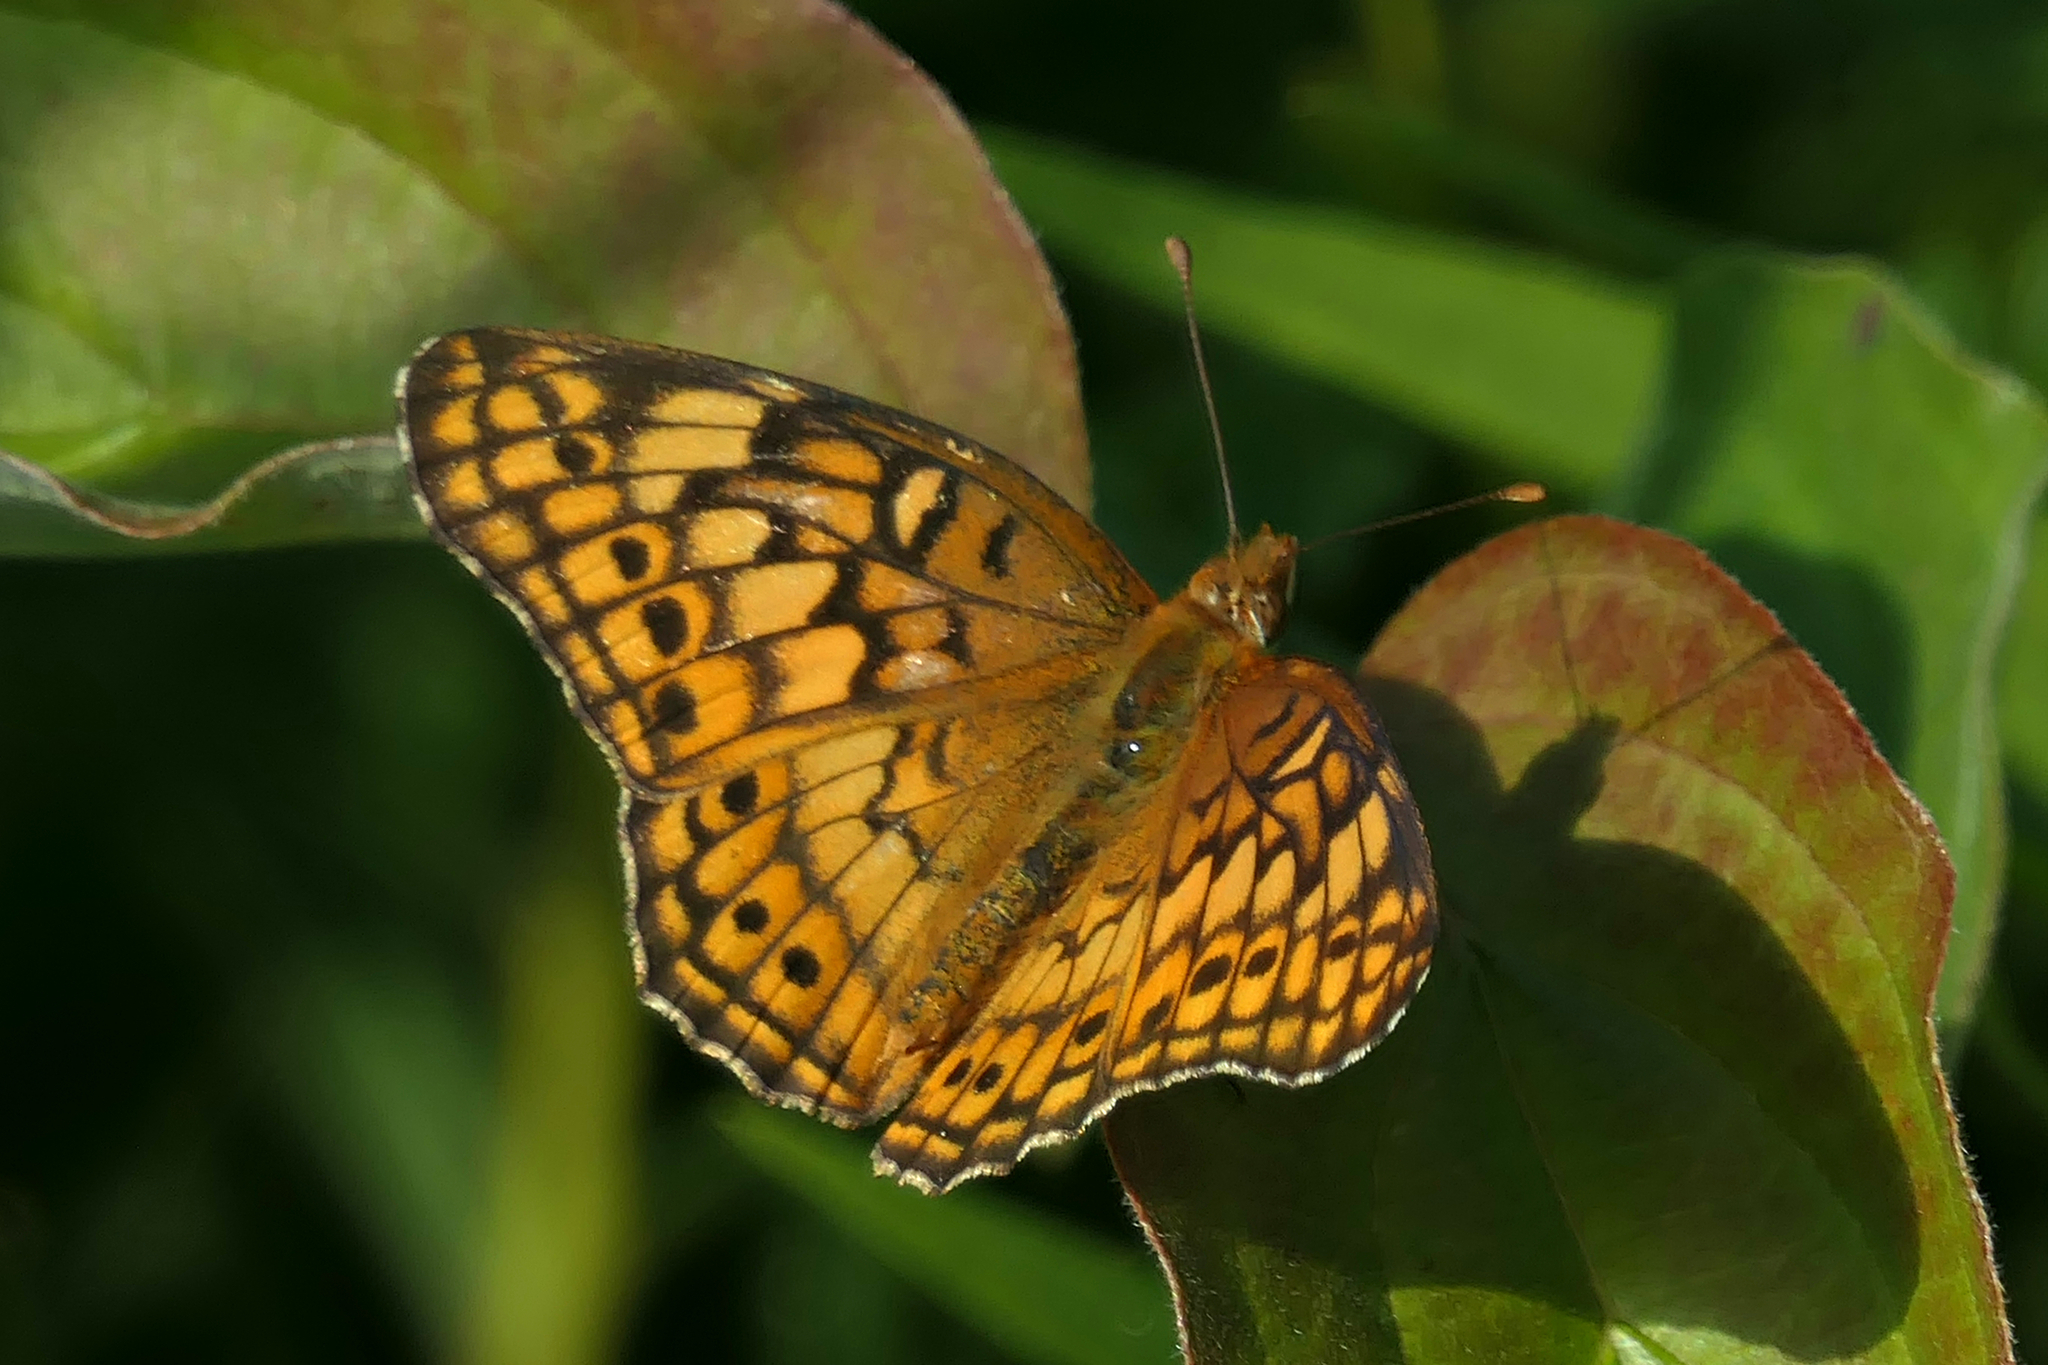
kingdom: Animalia
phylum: Arthropoda
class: Insecta
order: Lepidoptera
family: Nymphalidae
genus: Euptoieta
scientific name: Euptoieta claudia
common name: Variegated fritillary
